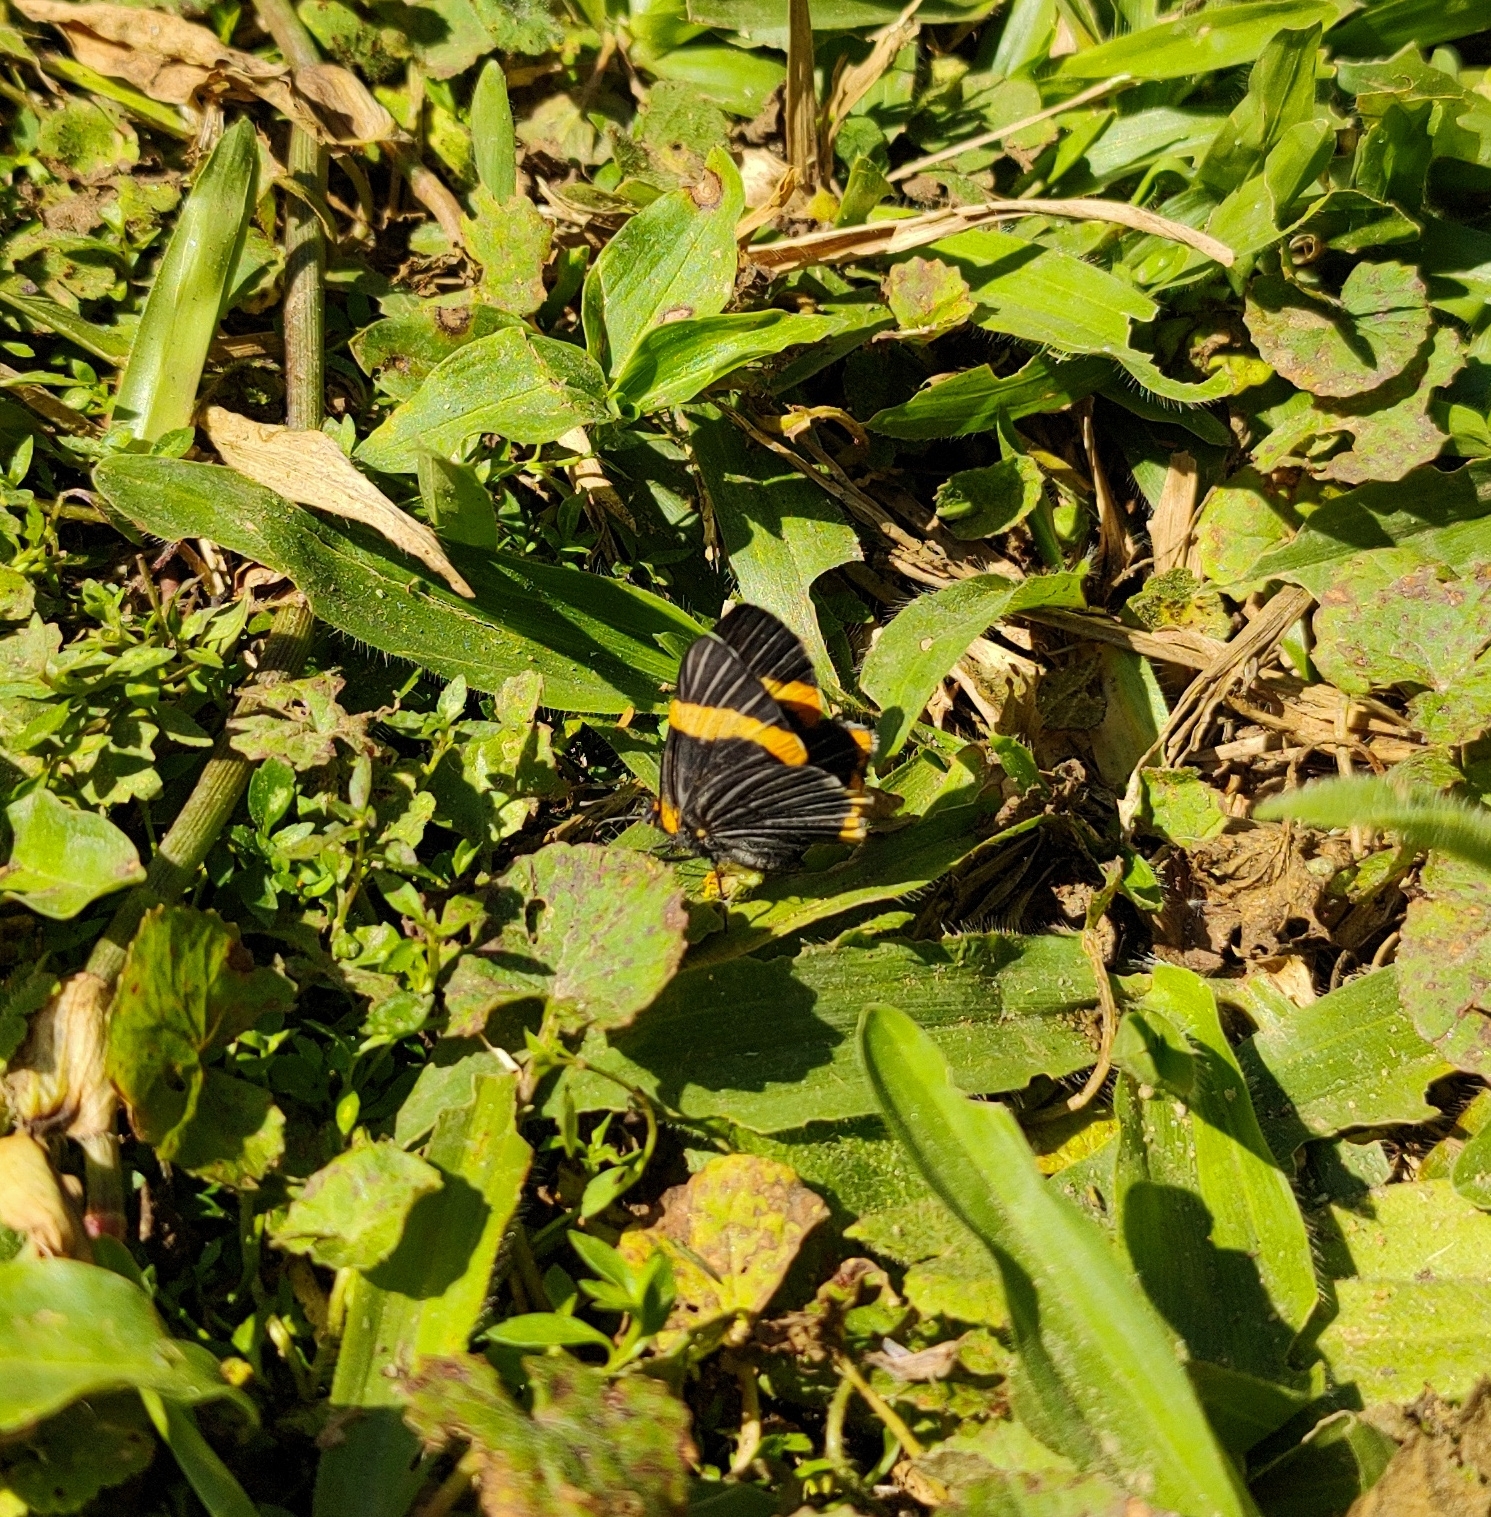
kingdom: Animalia
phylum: Arthropoda
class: Insecta
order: Lepidoptera
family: Riodinidae
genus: Riodina
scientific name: Riodina lycisca
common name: Lycisca metalmark
